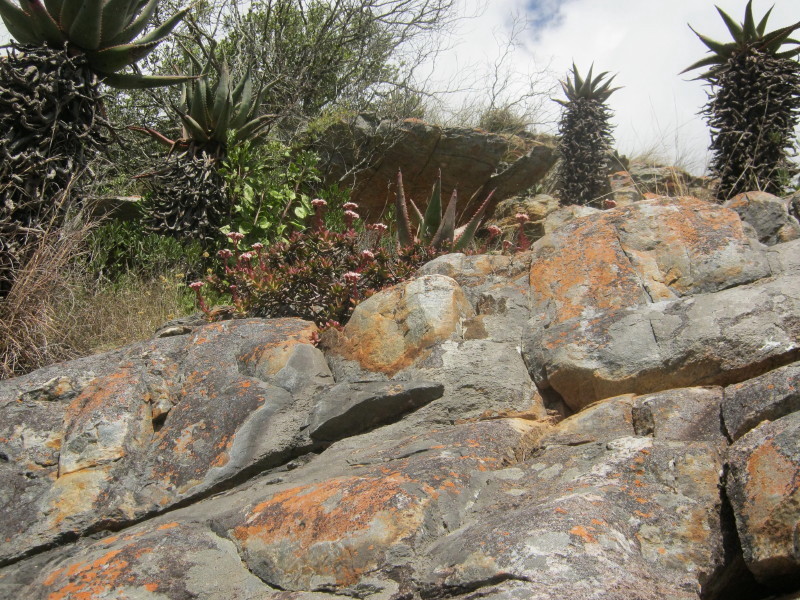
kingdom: Plantae
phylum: Tracheophyta
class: Magnoliopsida
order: Saxifragales
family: Crassulaceae
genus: Crassula
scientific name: Crassula rubricaulis
